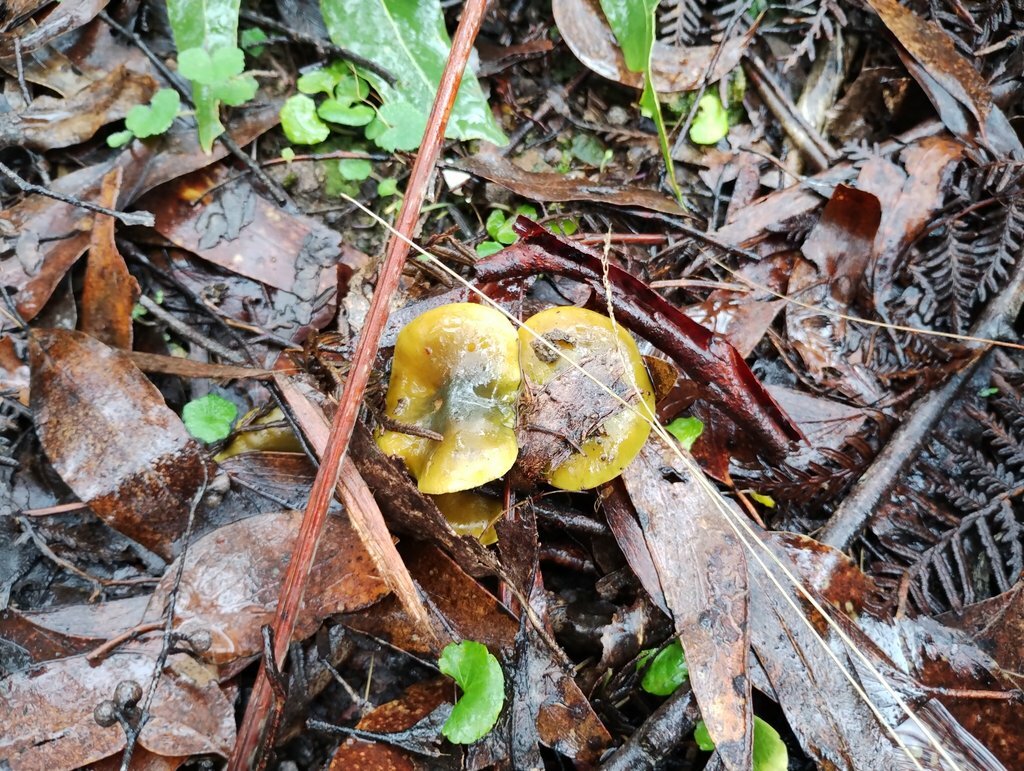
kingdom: Fungi
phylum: Basidiomycota
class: Agaricomycetes
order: Agaricales
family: Cortinariaceae
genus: Cortinarius
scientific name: Cortinarius austrovenetus
